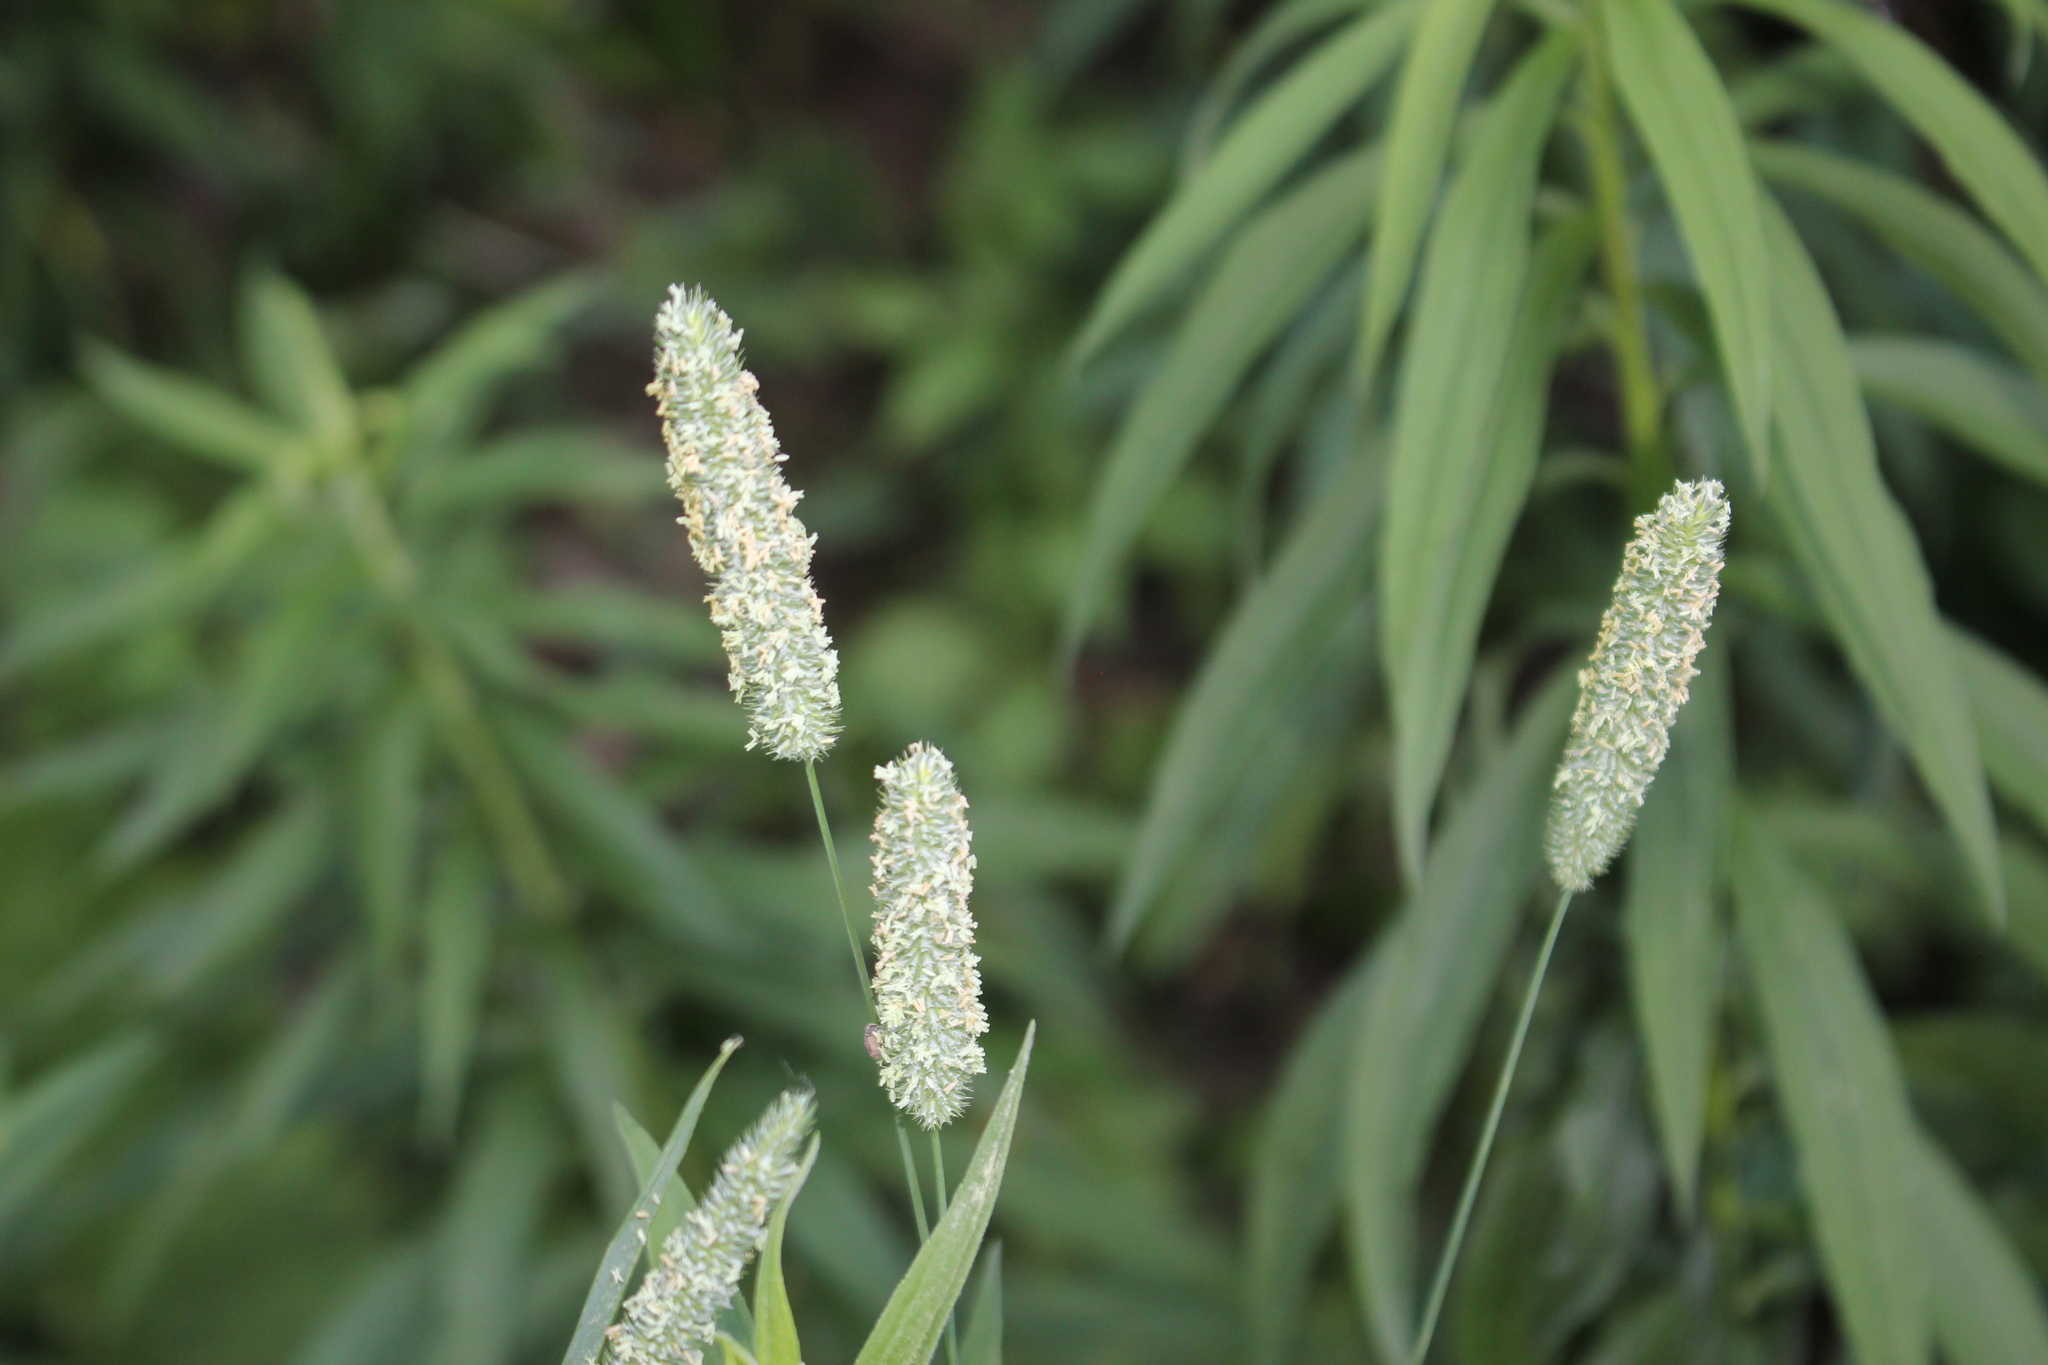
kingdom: Plantae
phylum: Tracheophyta
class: Liliopsida
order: Poales
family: Poaceae
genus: Phleum
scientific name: Phleum pratense
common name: Timothy grass
